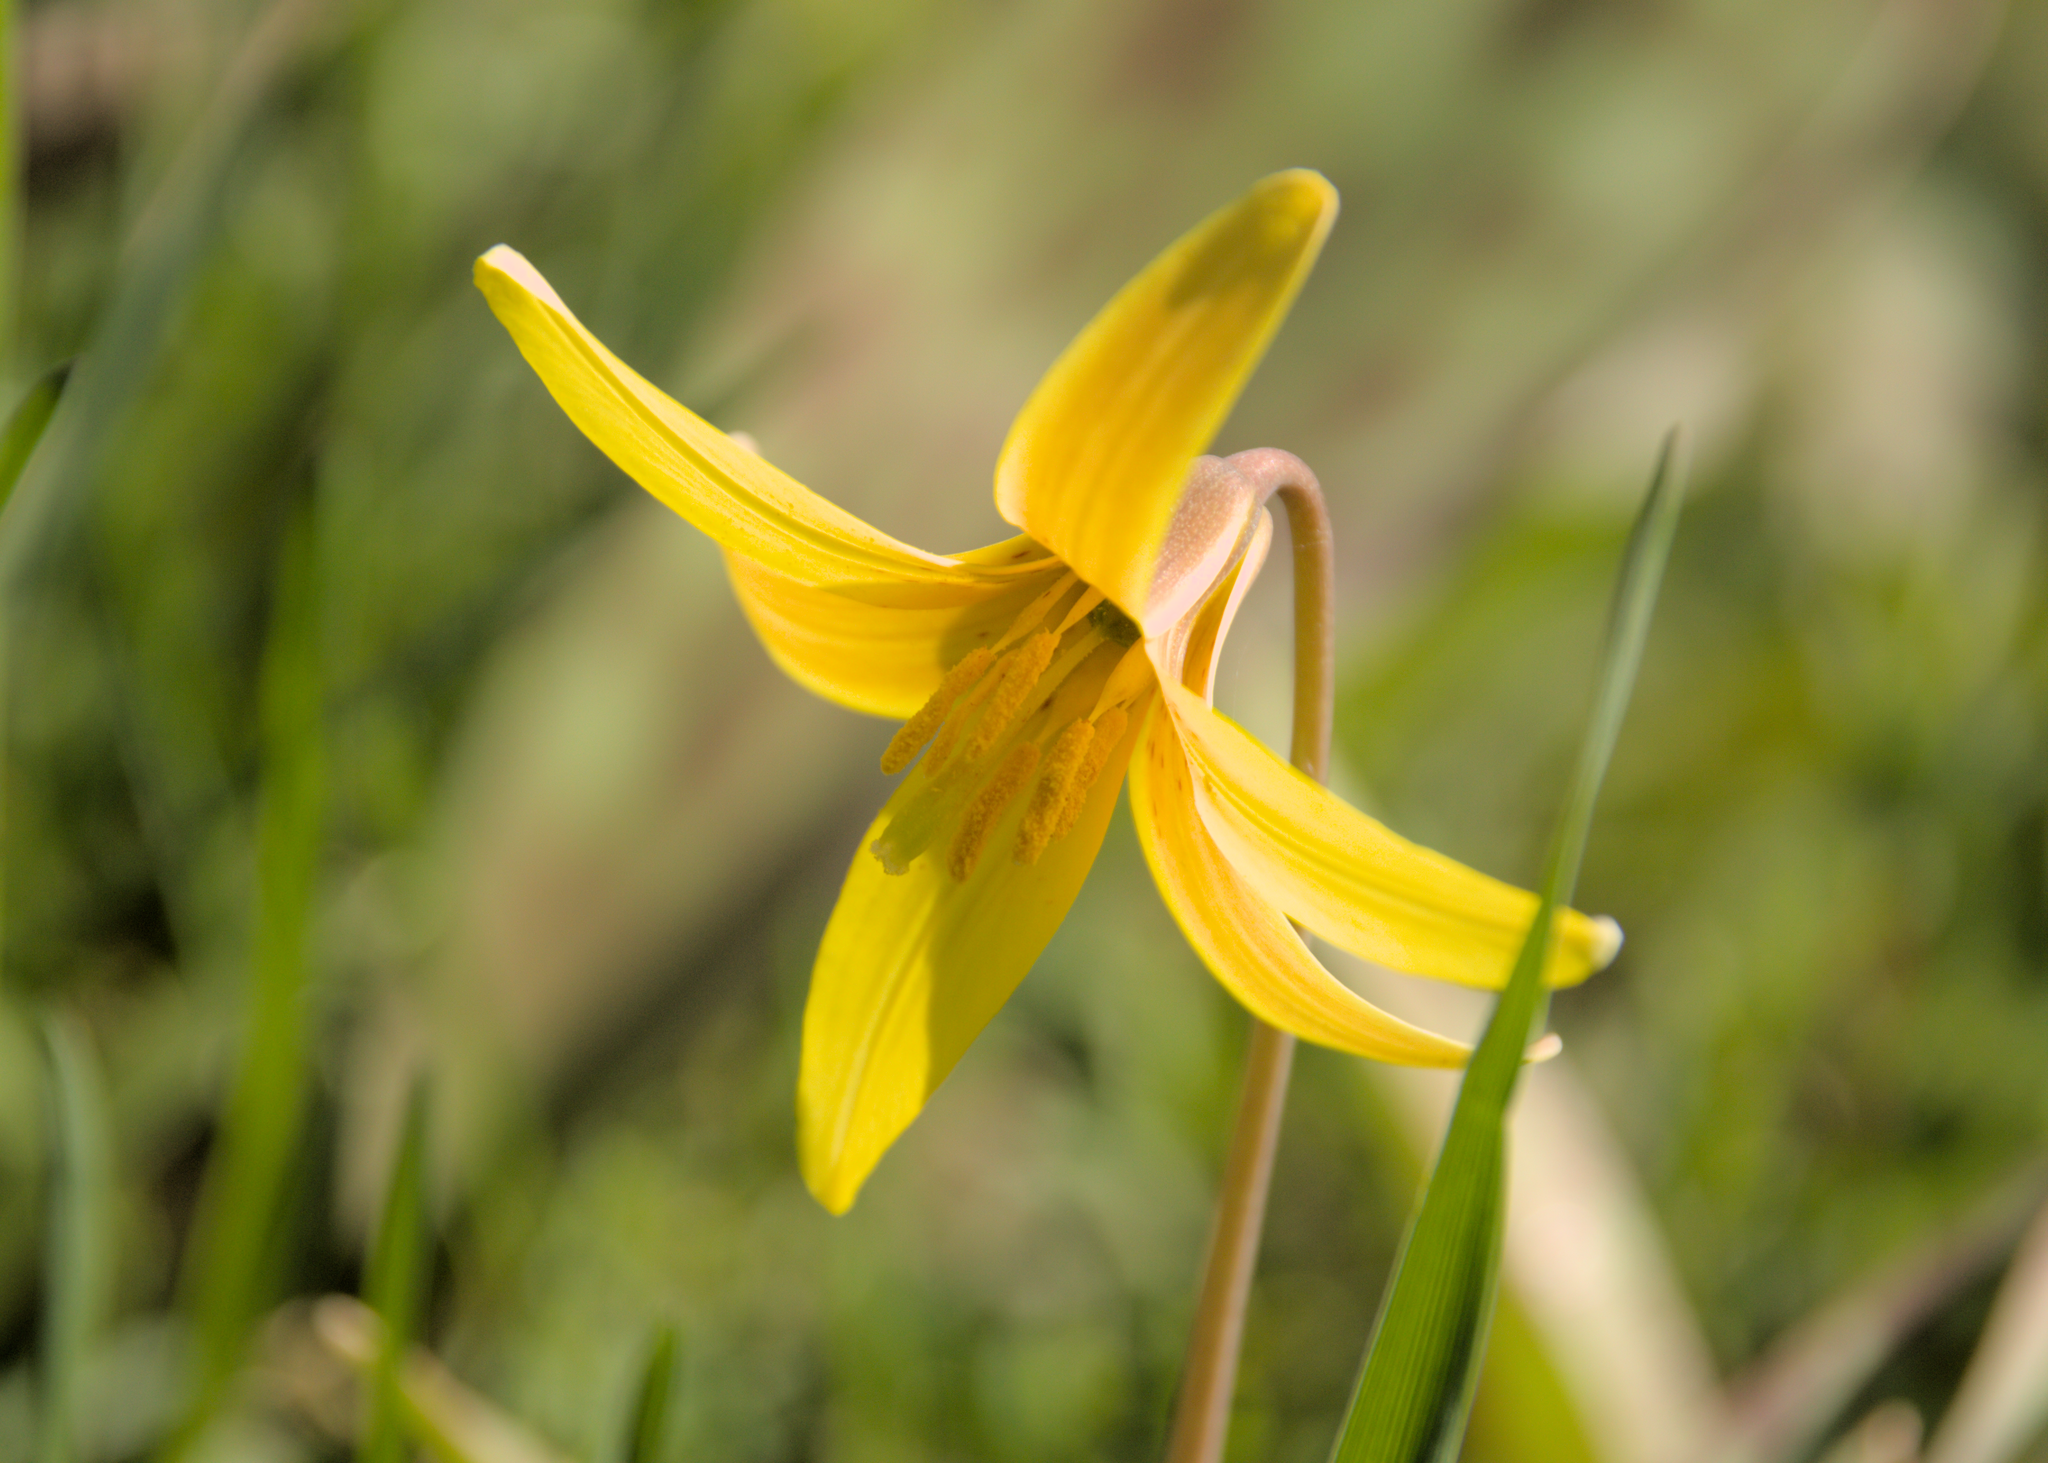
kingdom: Plantae
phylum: Tracheophyta
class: Liliopsida
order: Liliales
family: Liliaceae
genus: Erythronium
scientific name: Erythronium americanum
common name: Yellow adder's-tongue
